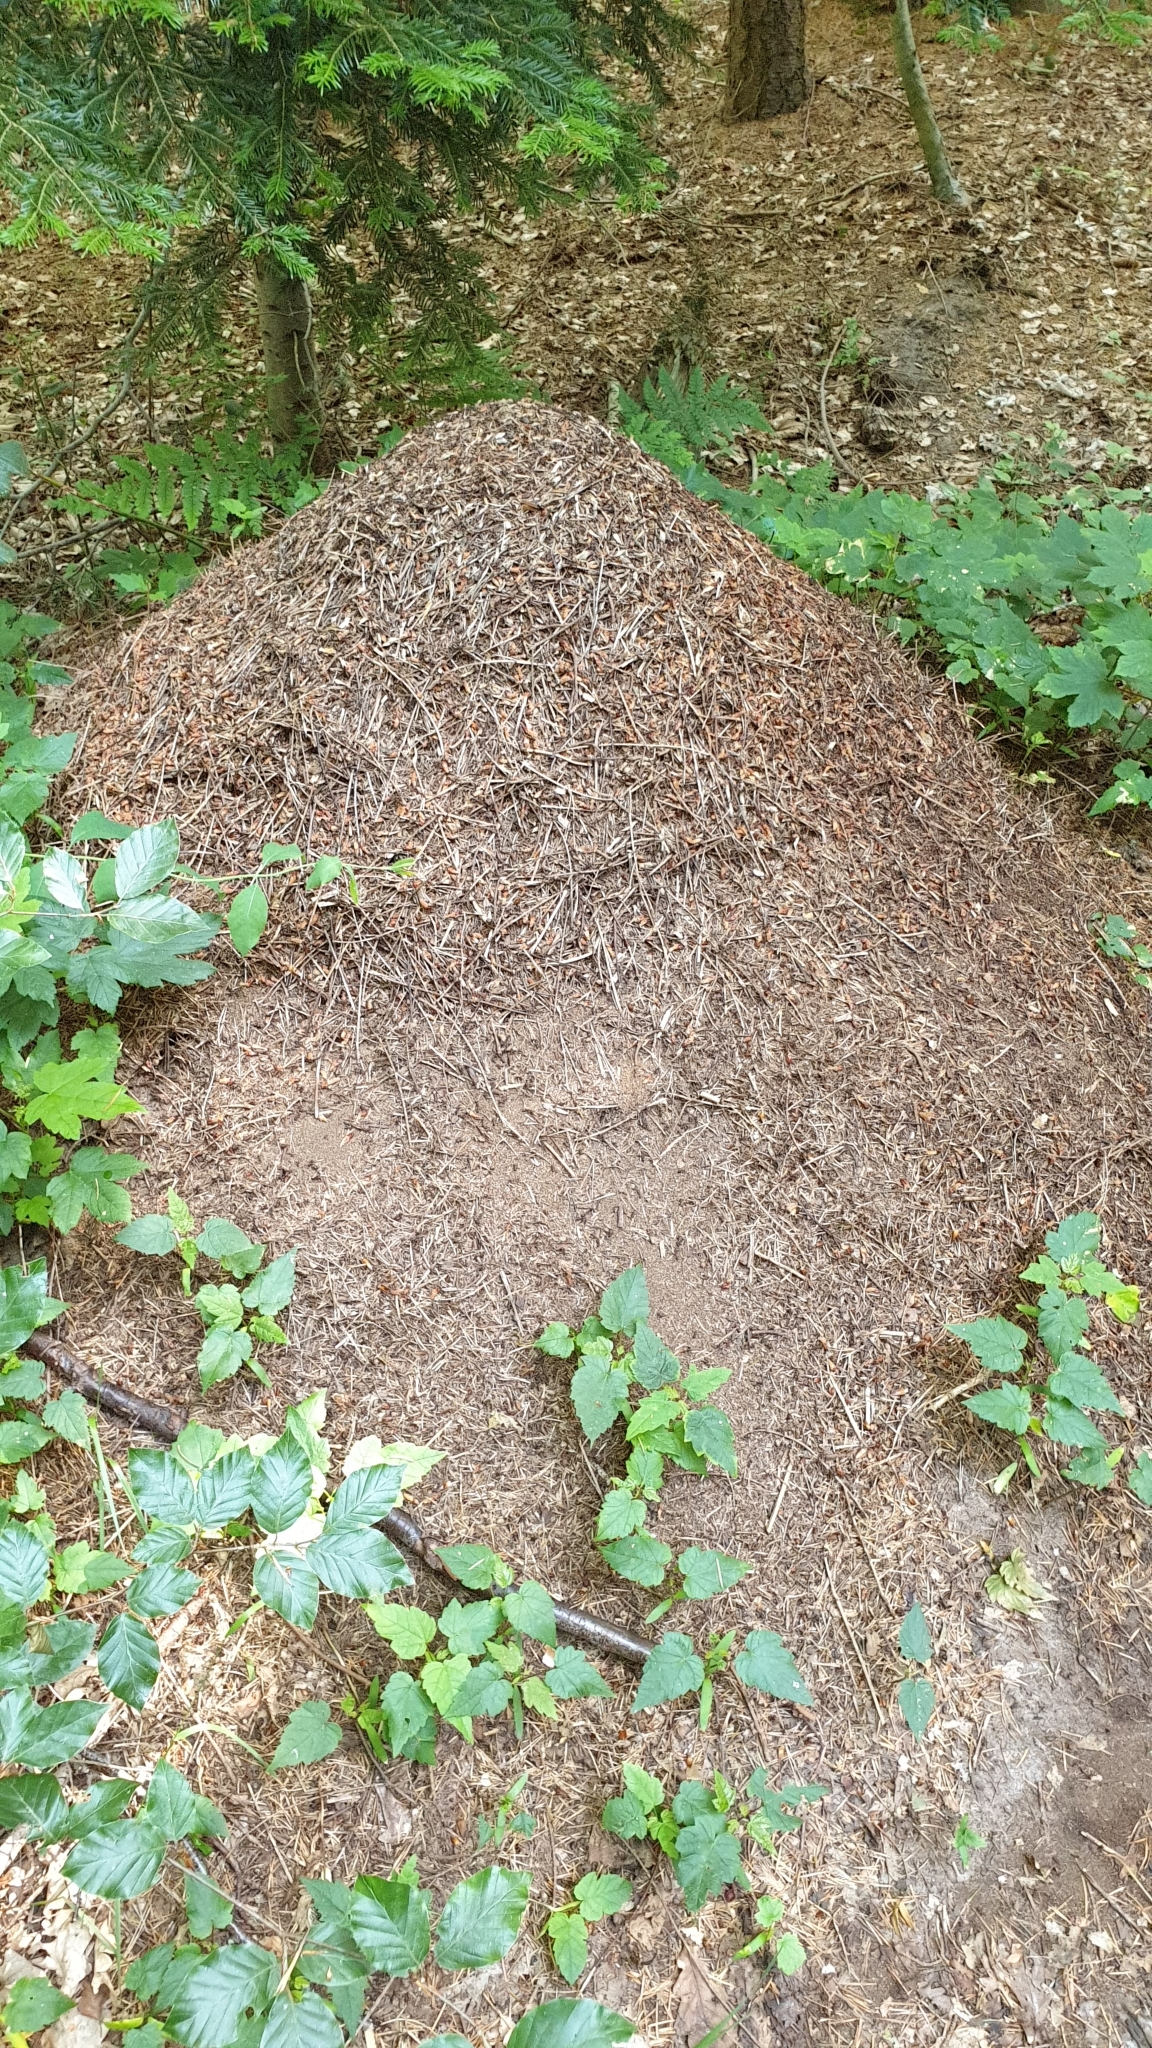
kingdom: Animalia
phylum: Arthropoda
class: Insecta
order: Hymenoptera
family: Formicidae
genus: Formica
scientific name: Formica rufa
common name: Red wood ant
